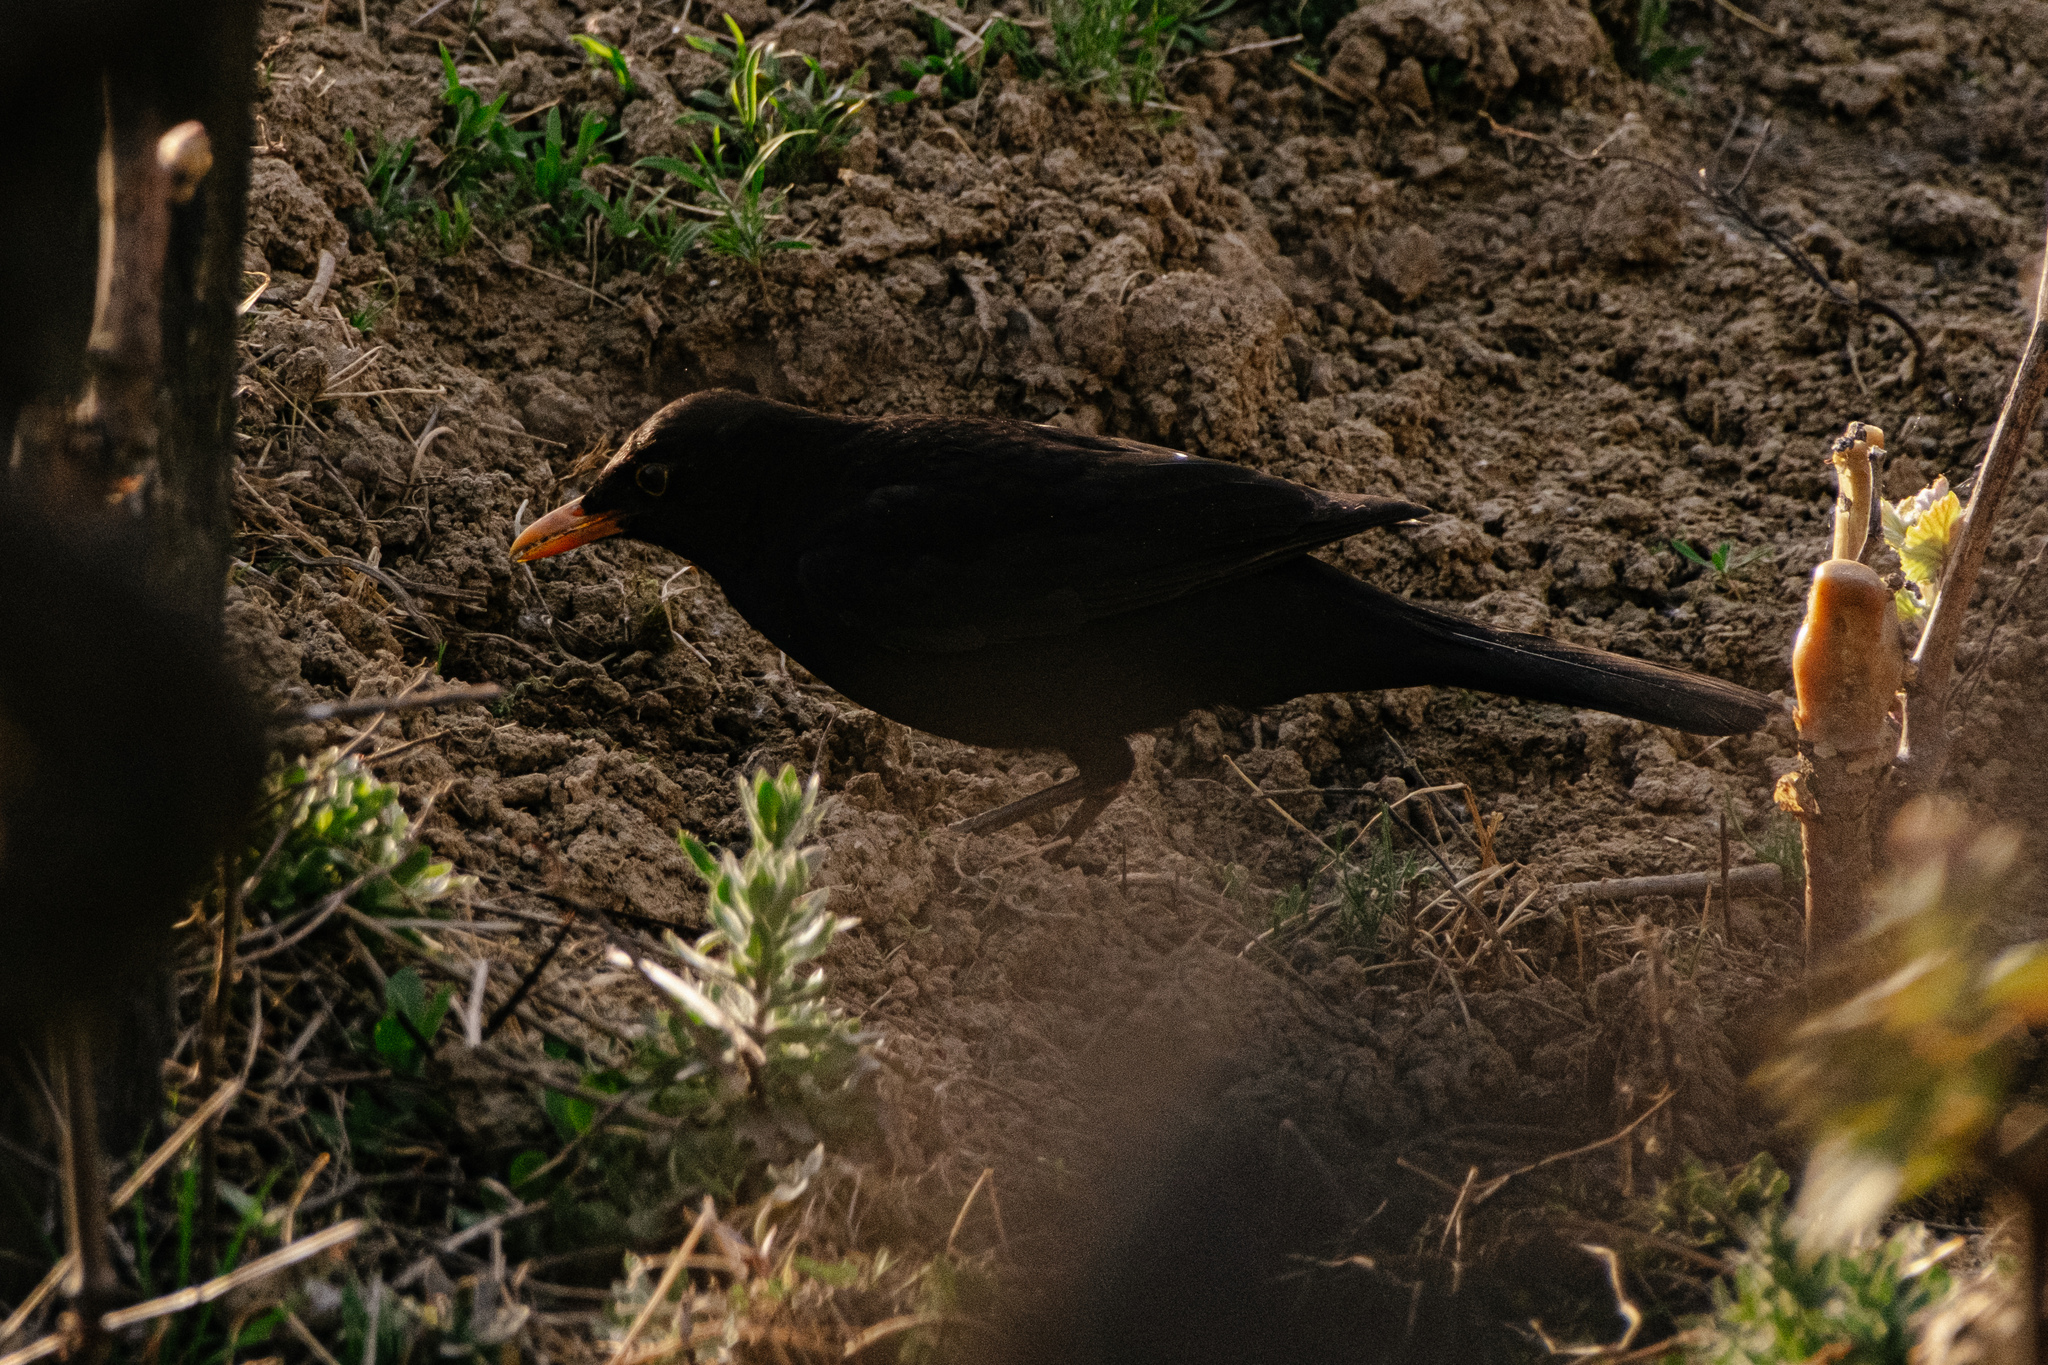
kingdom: Animalia
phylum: Chordata
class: Aves
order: Passeriformes
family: Turdidae
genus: Turdus
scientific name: Turdus merula
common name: Common blackbird
